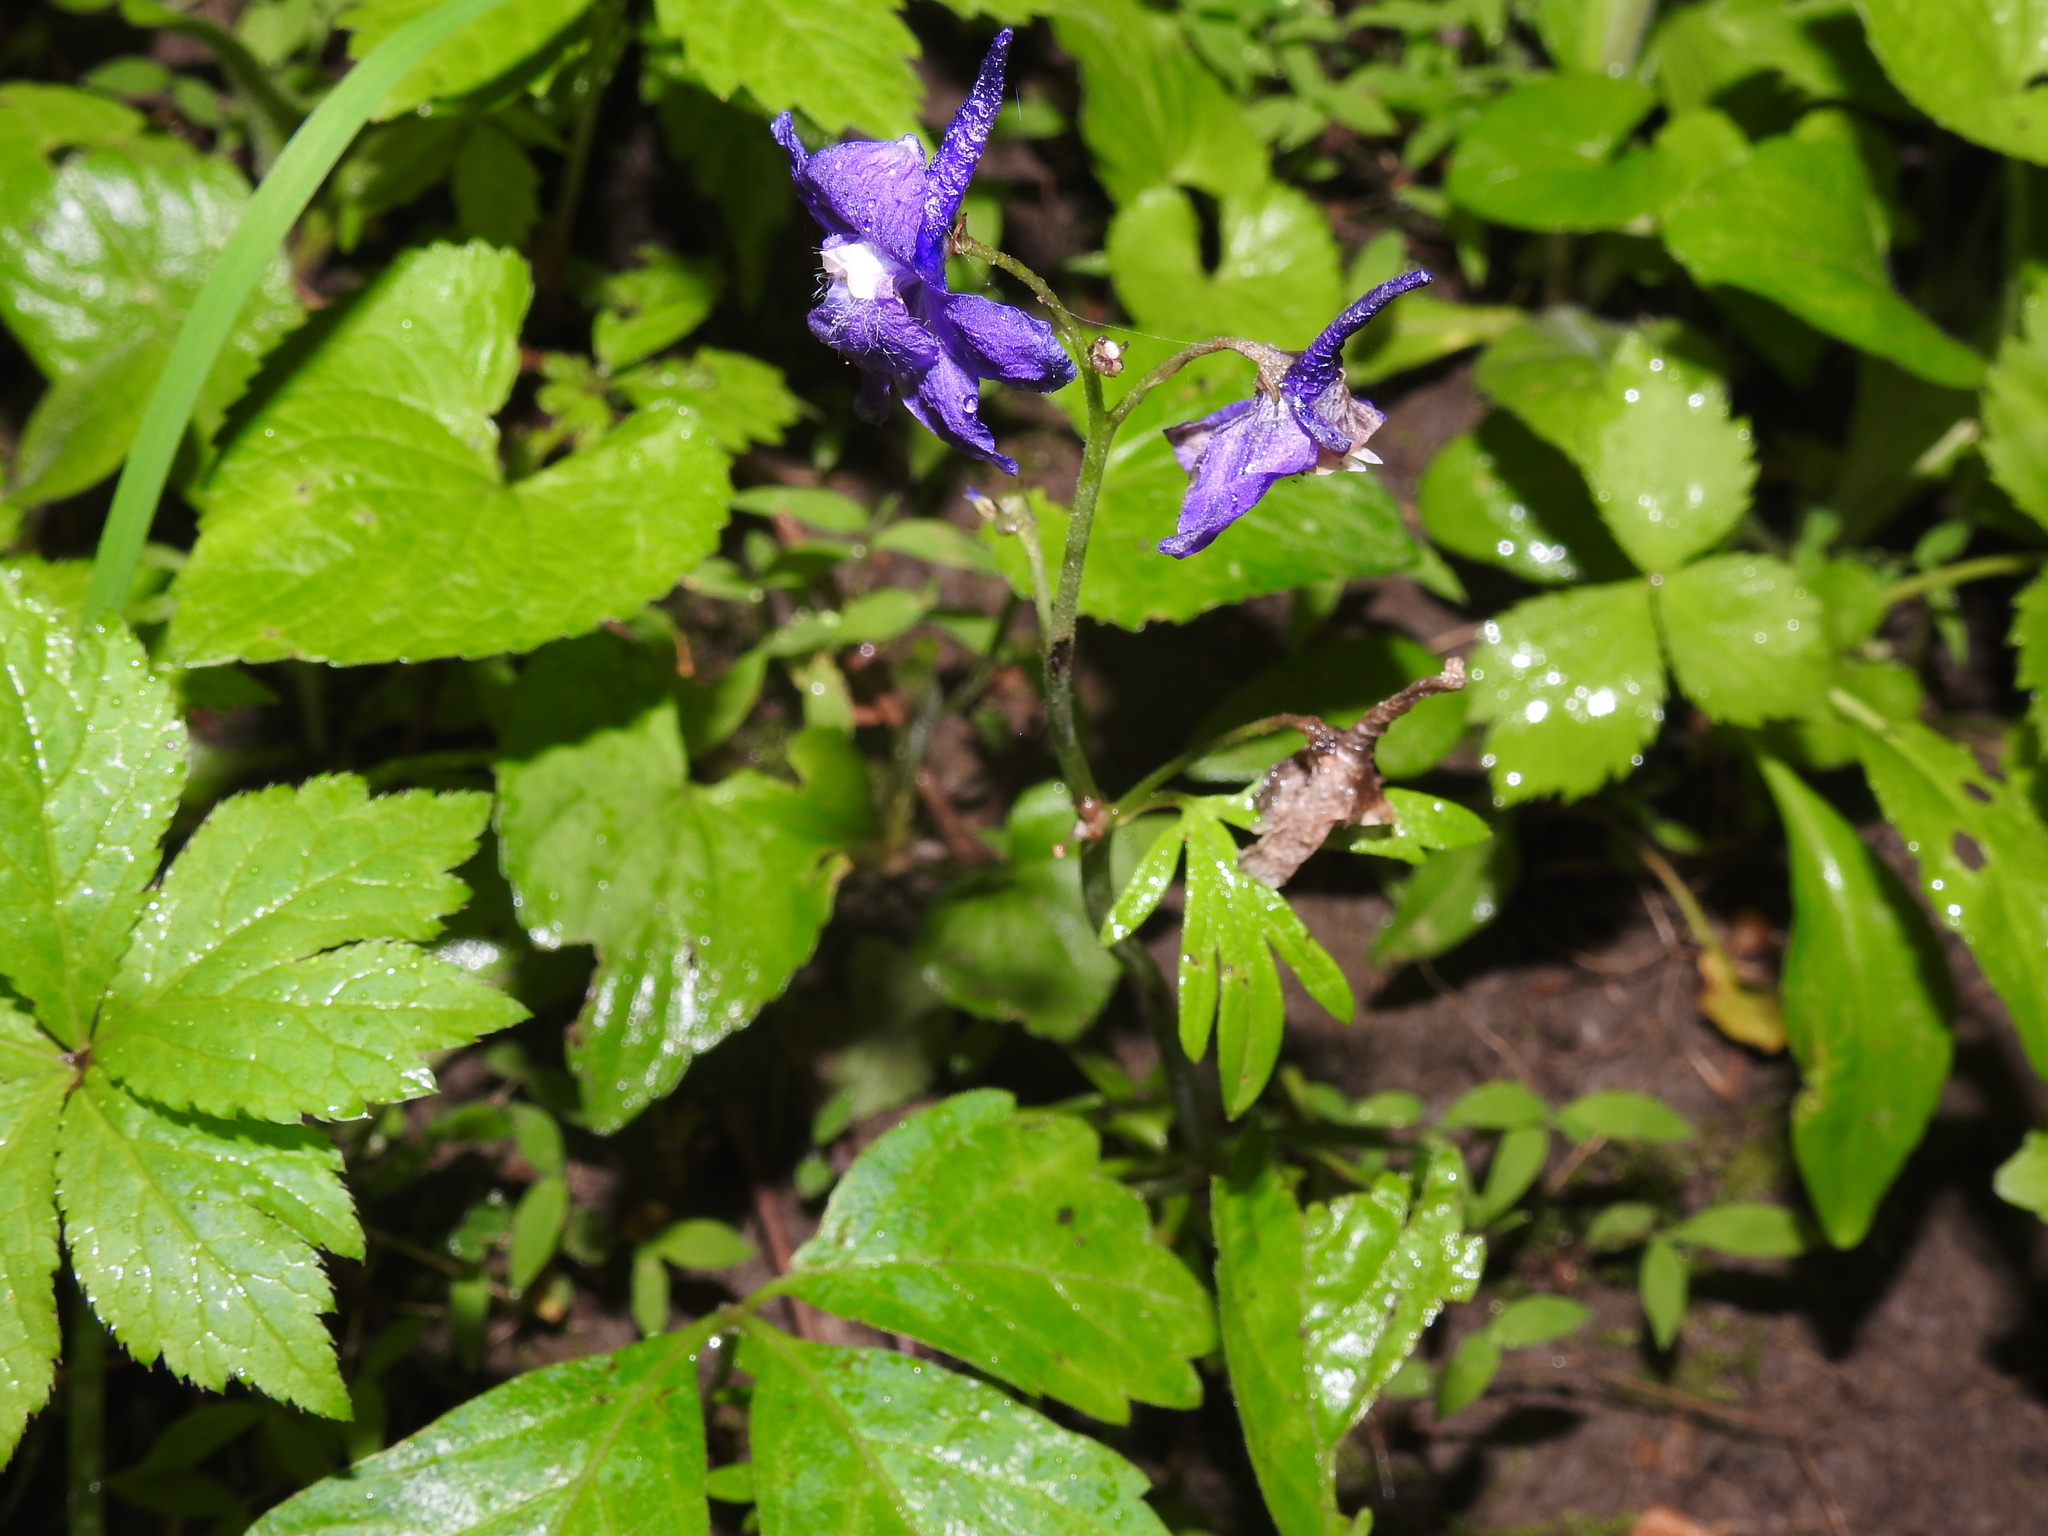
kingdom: Plantae
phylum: Tracheophyta
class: Magnoliopsida
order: Ranunculales
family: Ranunculaceae
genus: Delphinium
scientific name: Delphinium tricorne
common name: Dwarf larkspur
